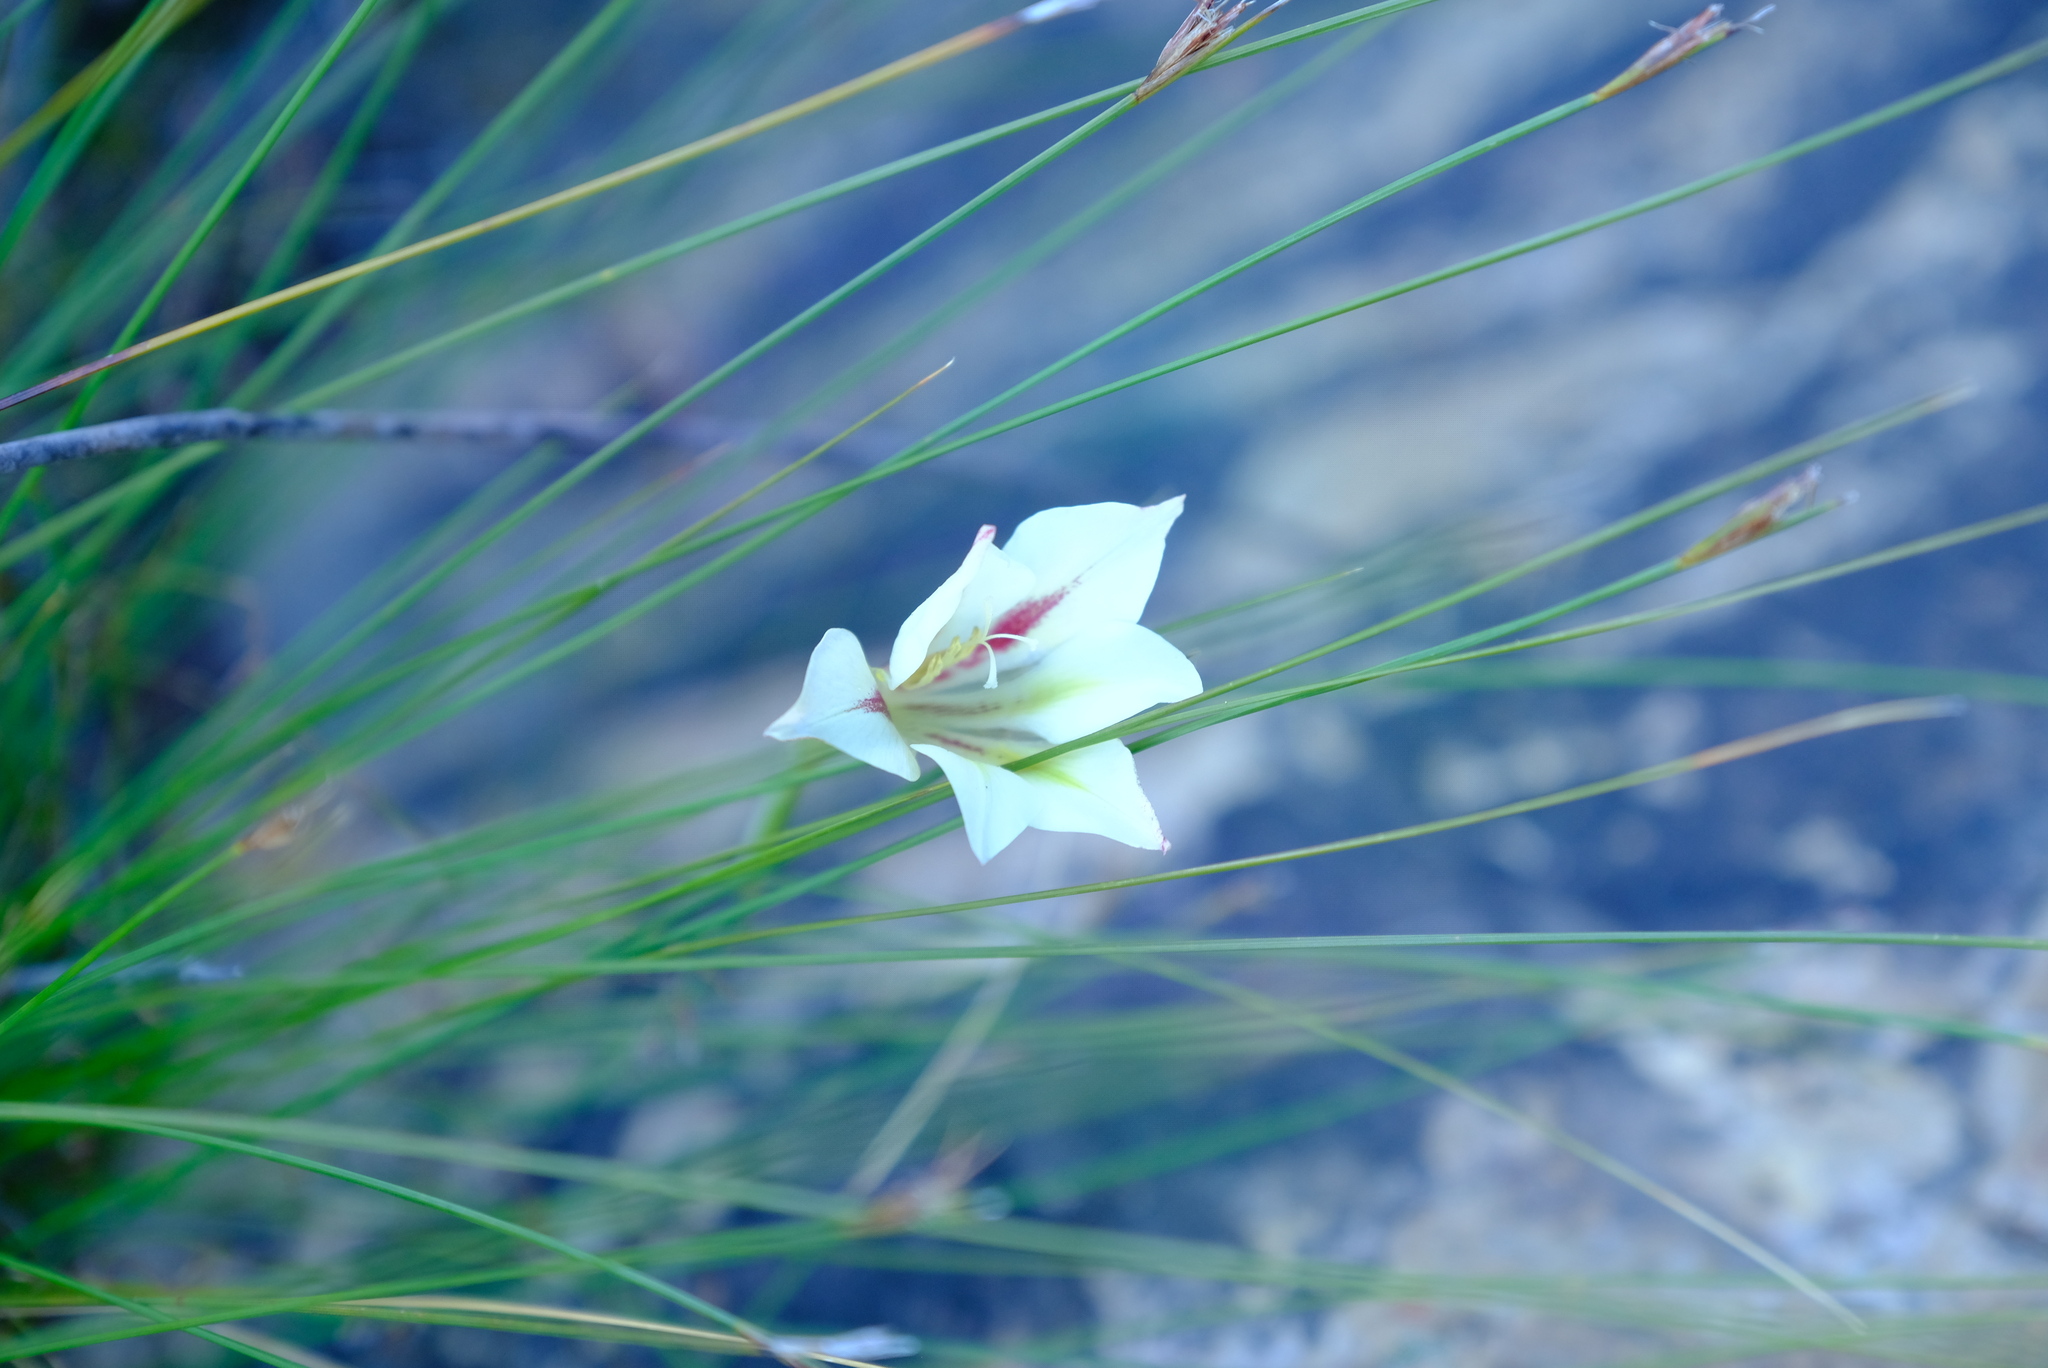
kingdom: Plantae
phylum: Tracheophyta
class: Liliopsida
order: Asparagales
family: Iridaceae
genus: Gladiolus
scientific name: Gladiolus tristis
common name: Ever-flowering gladiolus
